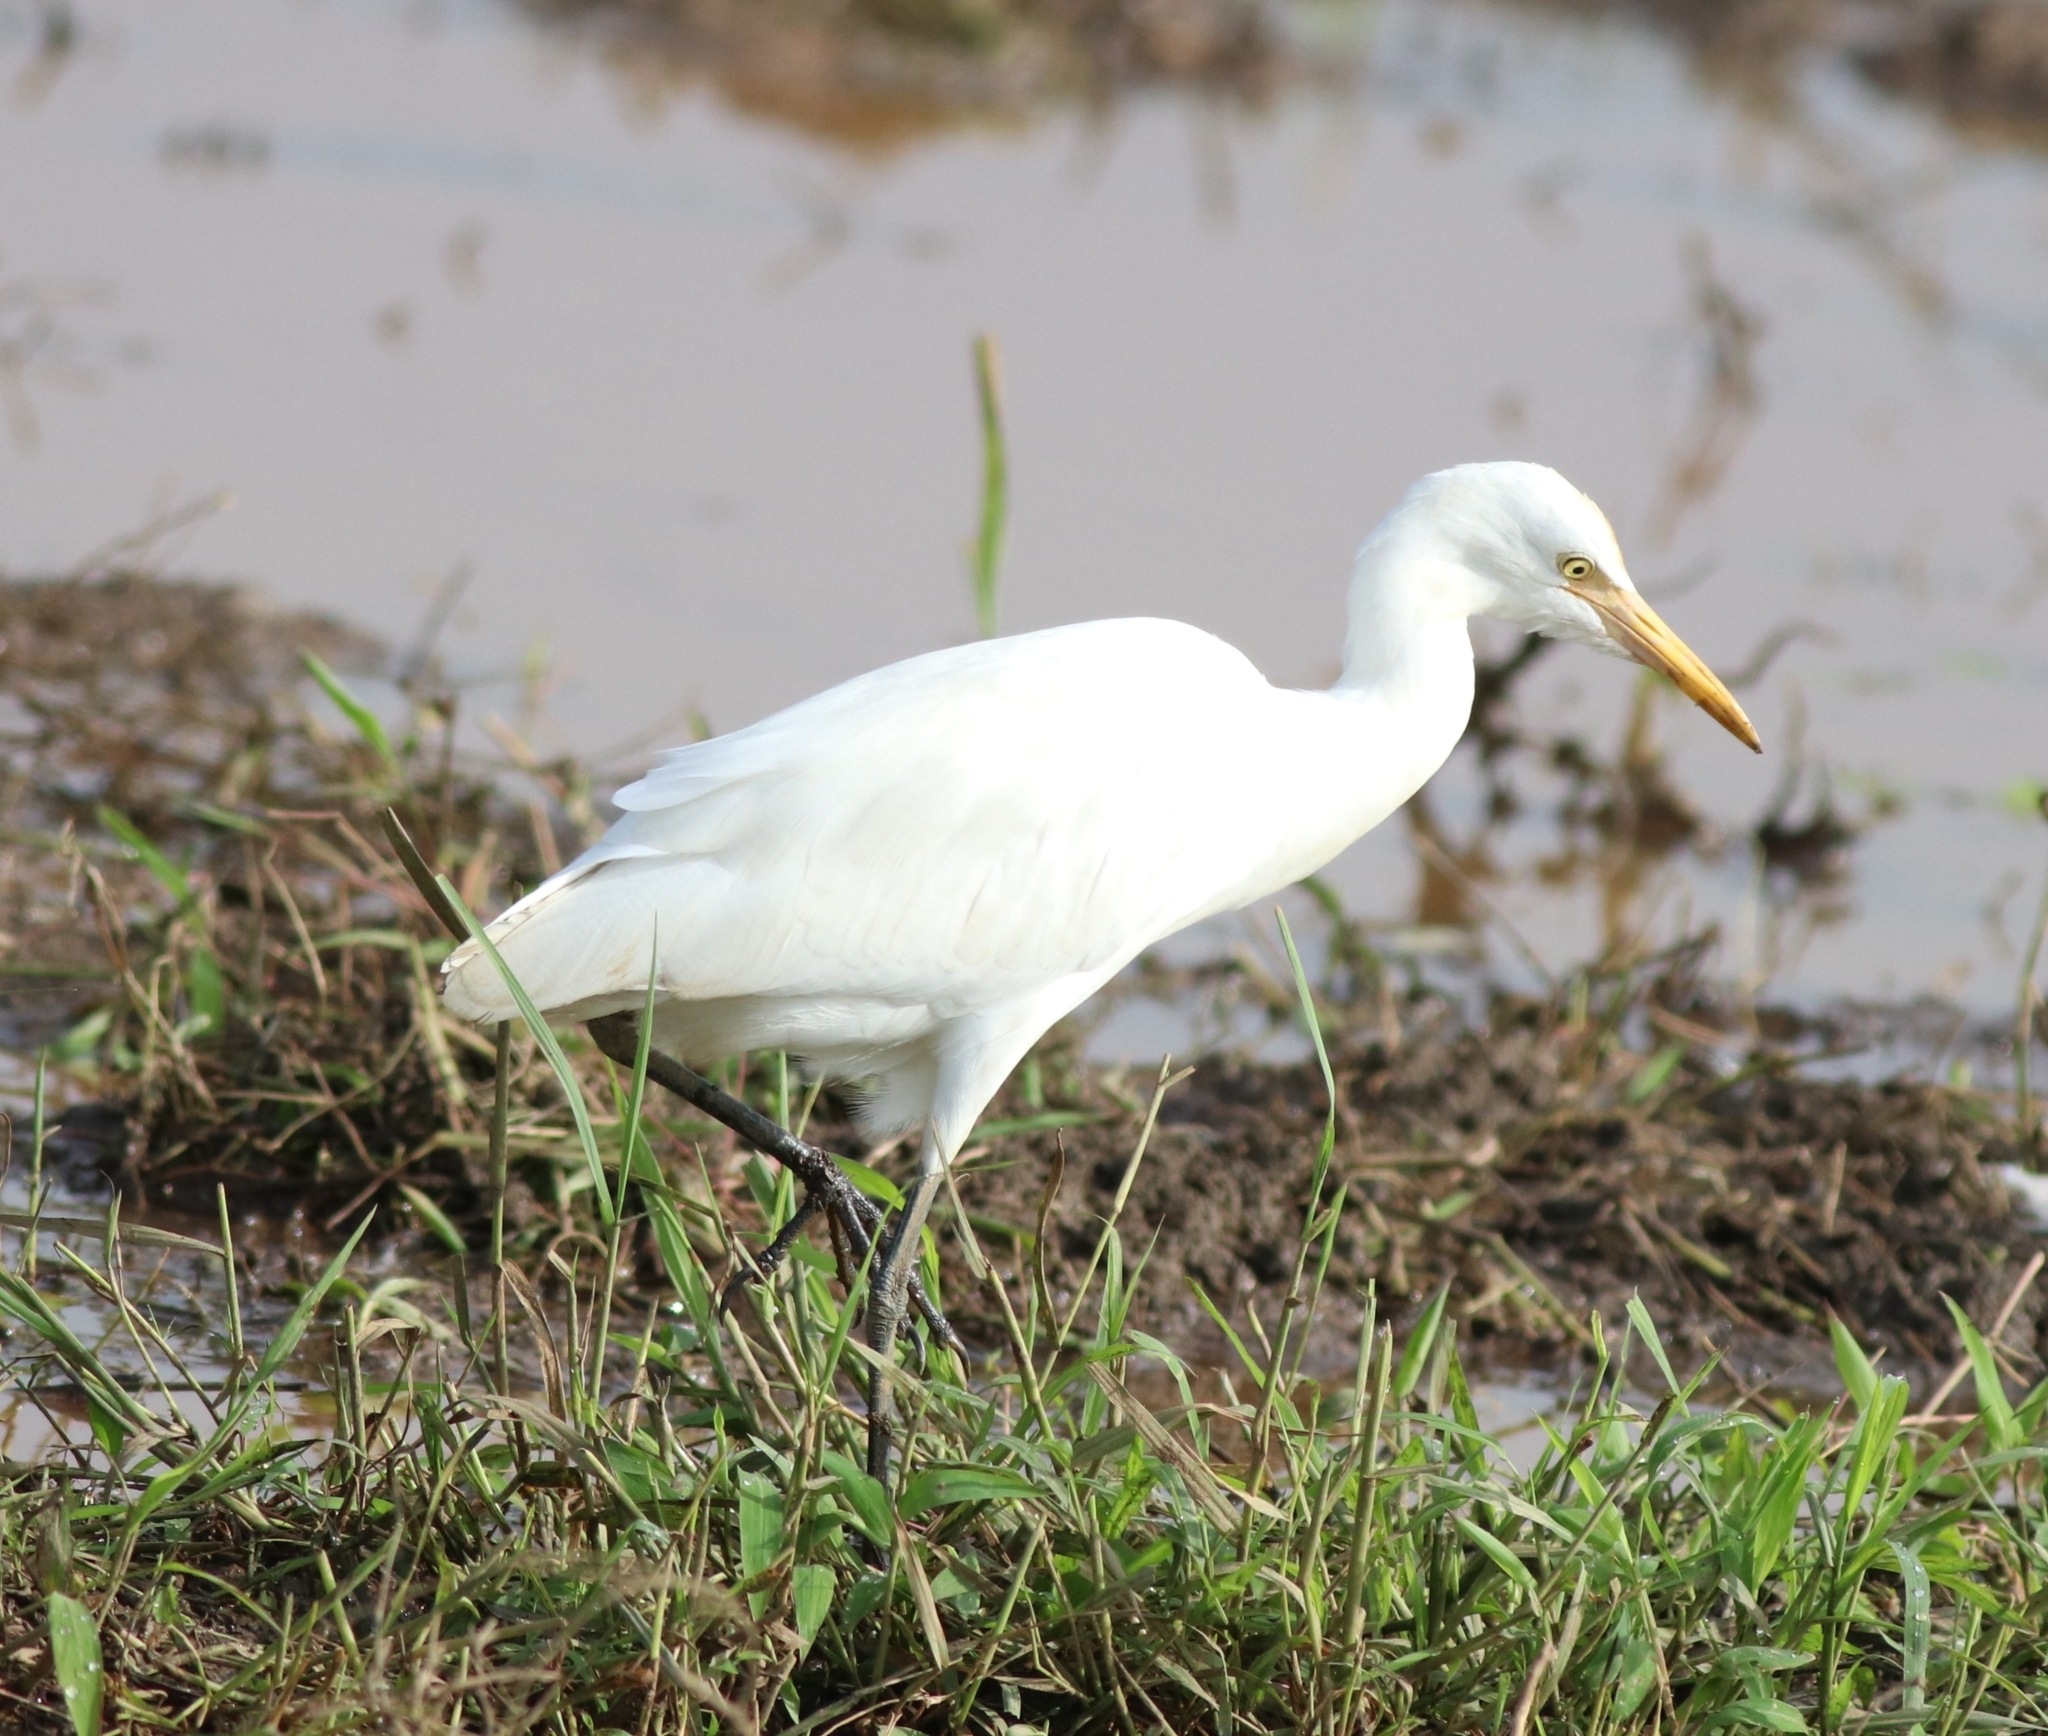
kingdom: Animalia
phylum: Chordata
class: Aves
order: Pelecaniformes
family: Ardeidae
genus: Bubulcus
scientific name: Bubulcus coromandus
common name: Eastern cattle egret
